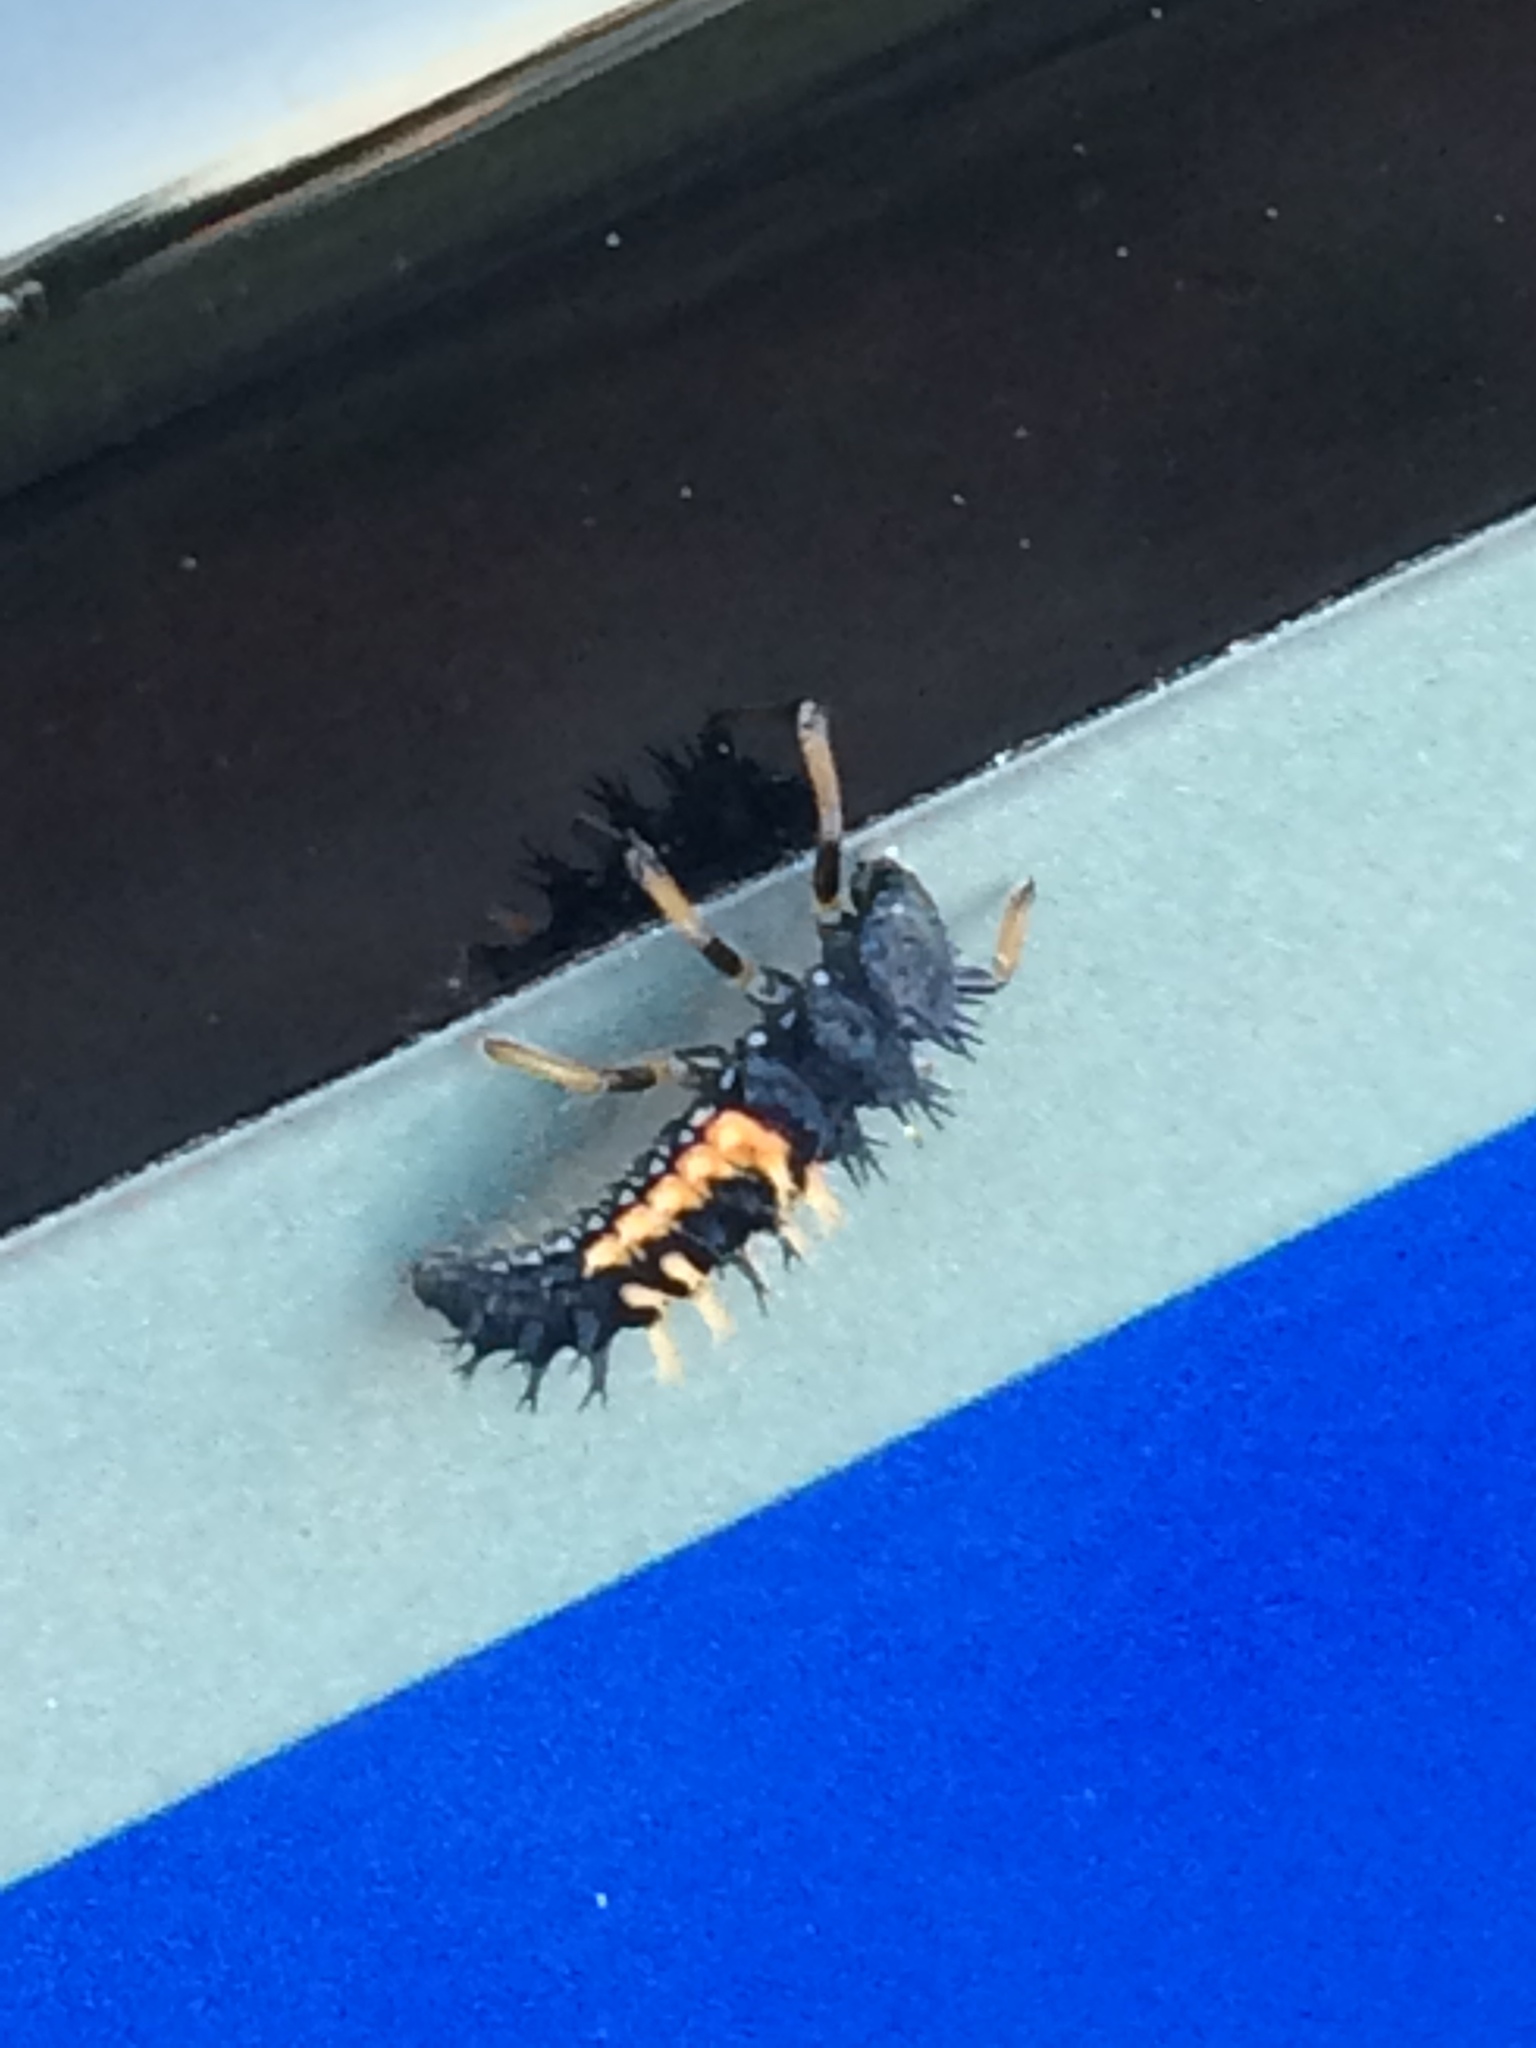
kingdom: Animalia
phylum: Arthropoda
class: Insecta
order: Coleoptera
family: Coccinellidae
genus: Harmonia
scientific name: Harmonia axyridis
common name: Harlequin ladybird
